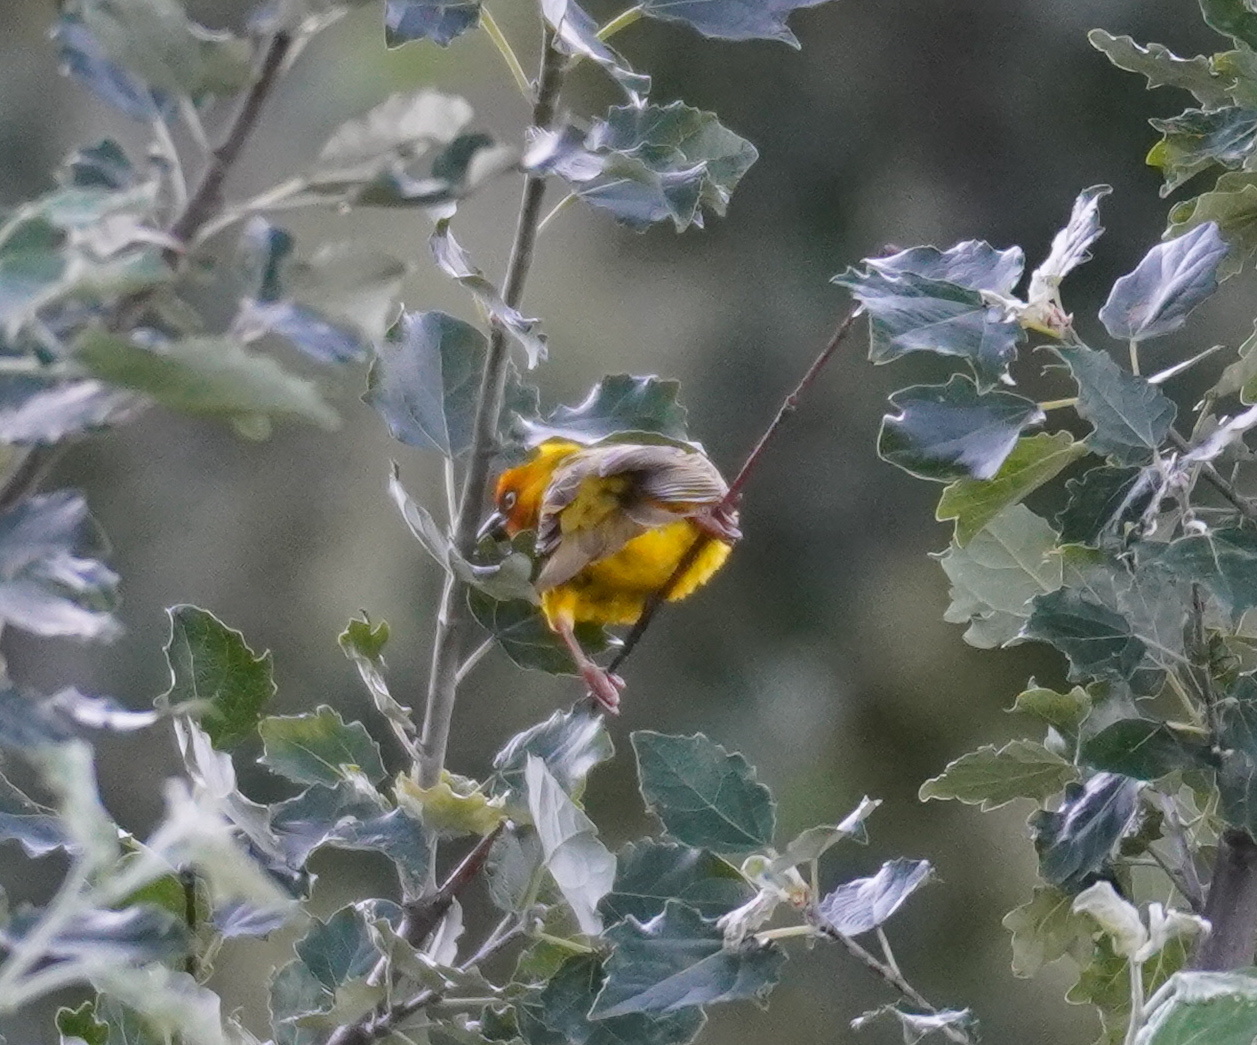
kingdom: Animalia
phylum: Chordata
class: Aves
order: Passeriformes
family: Ploceidae
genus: Ploceus
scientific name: Ploceus capensis
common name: Cape weaver
